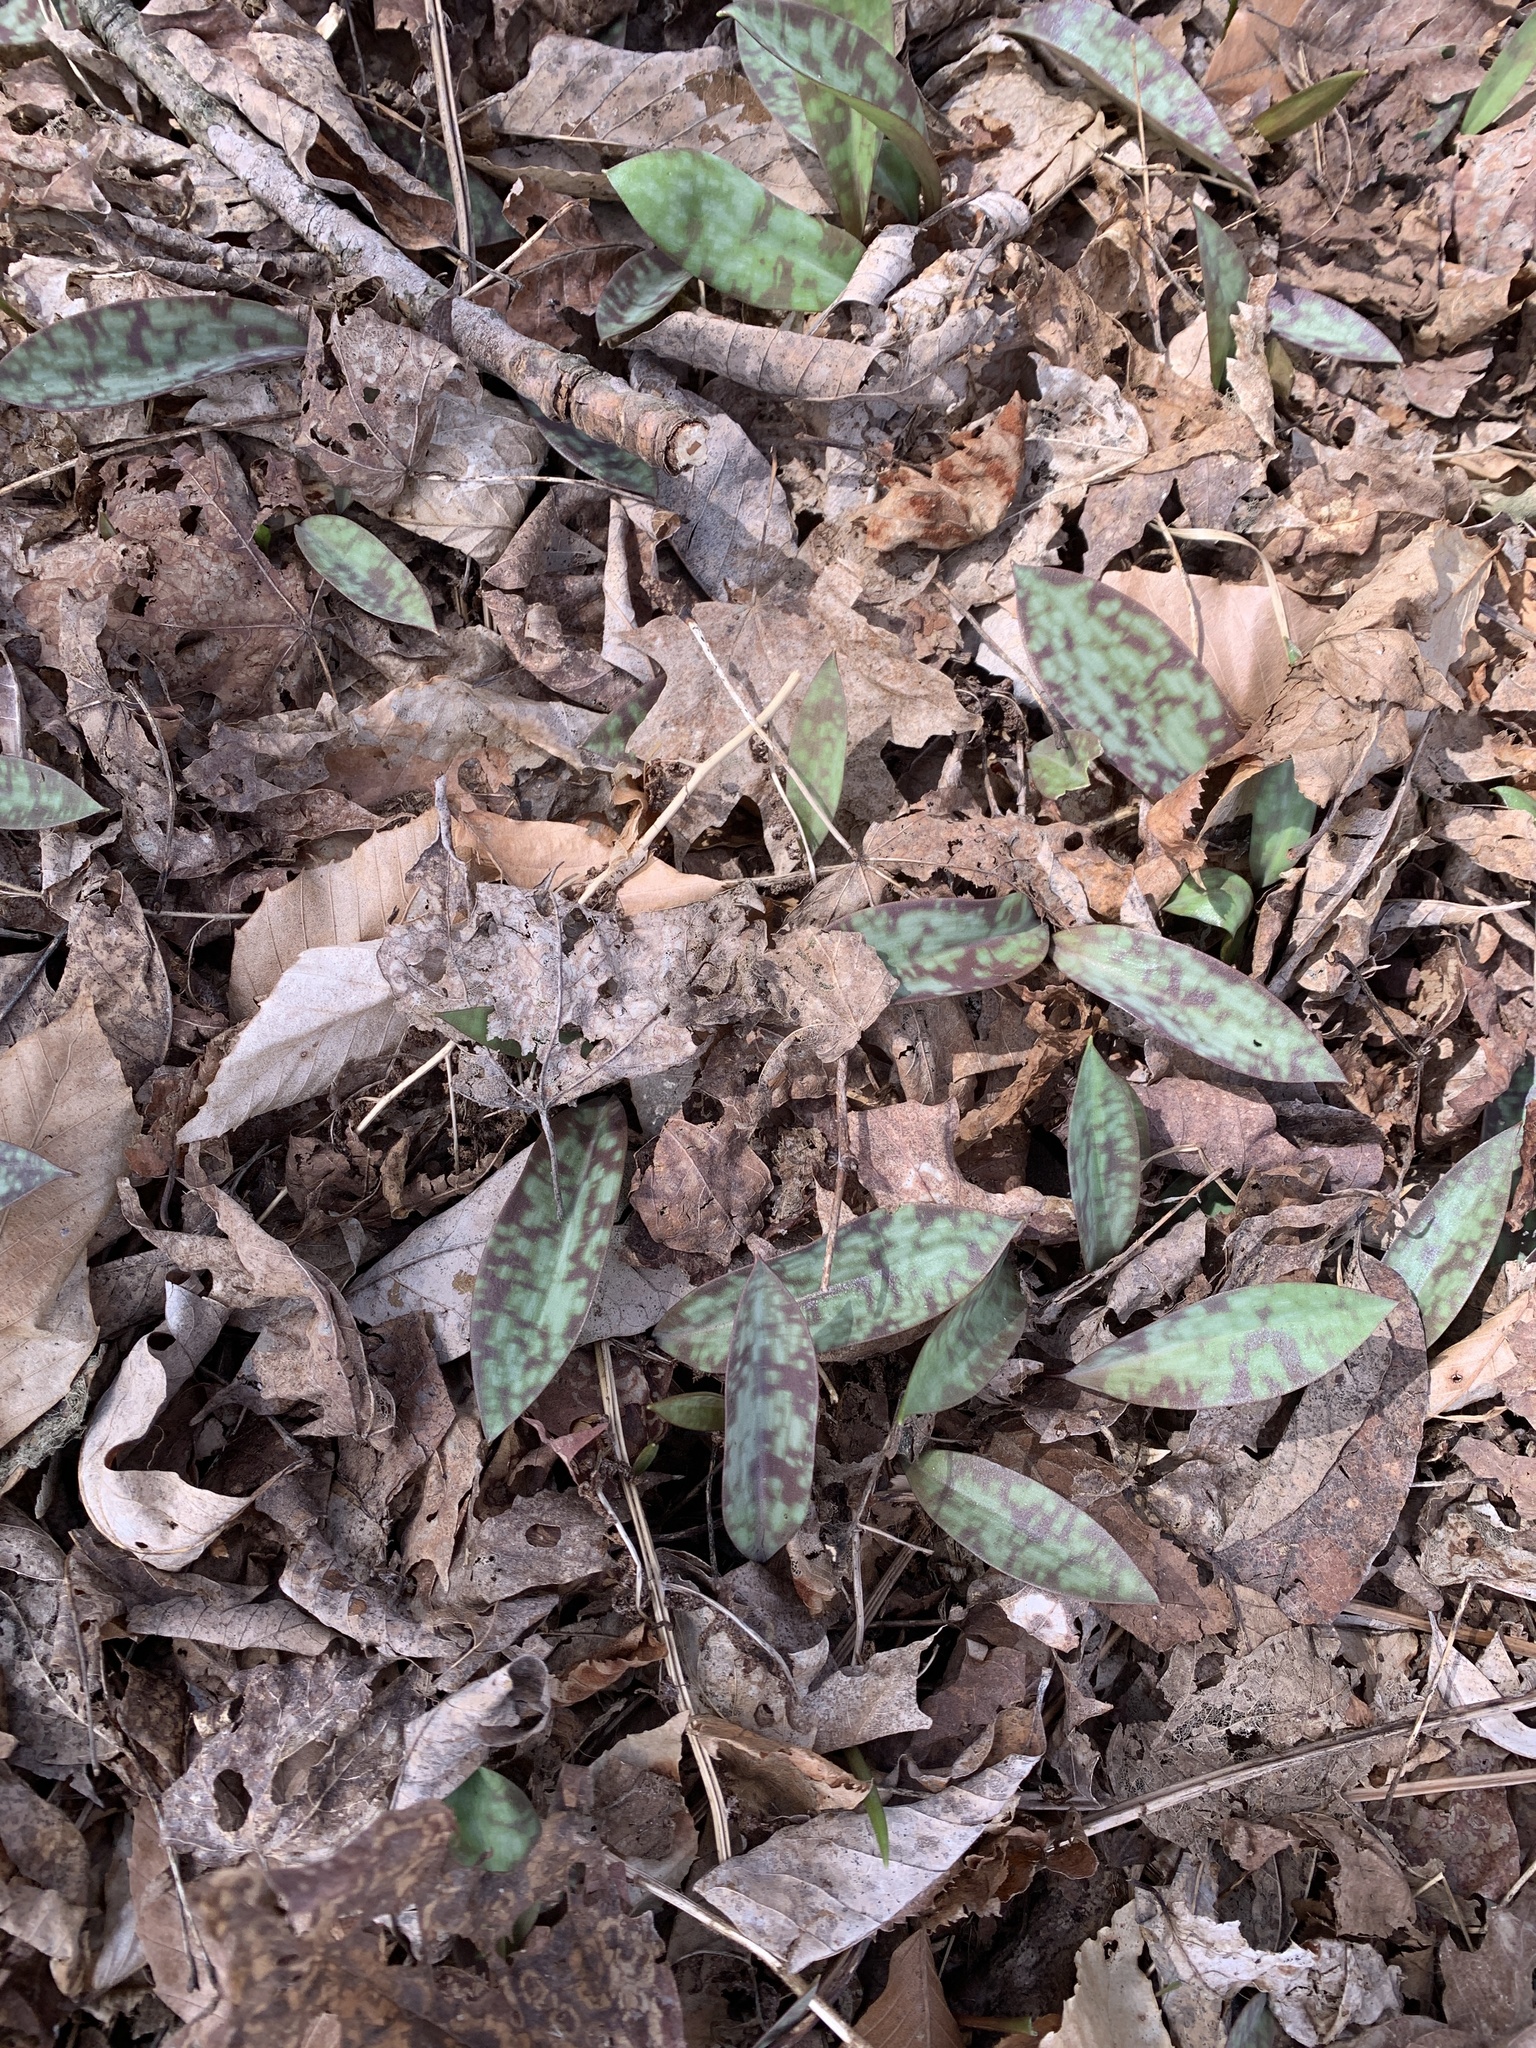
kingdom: Plantae
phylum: Tracheophyta
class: Liliopsida
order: Liliales
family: Liliaceae
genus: Erythronium
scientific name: Erythronium americanum
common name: Yellow adder's-tongue
